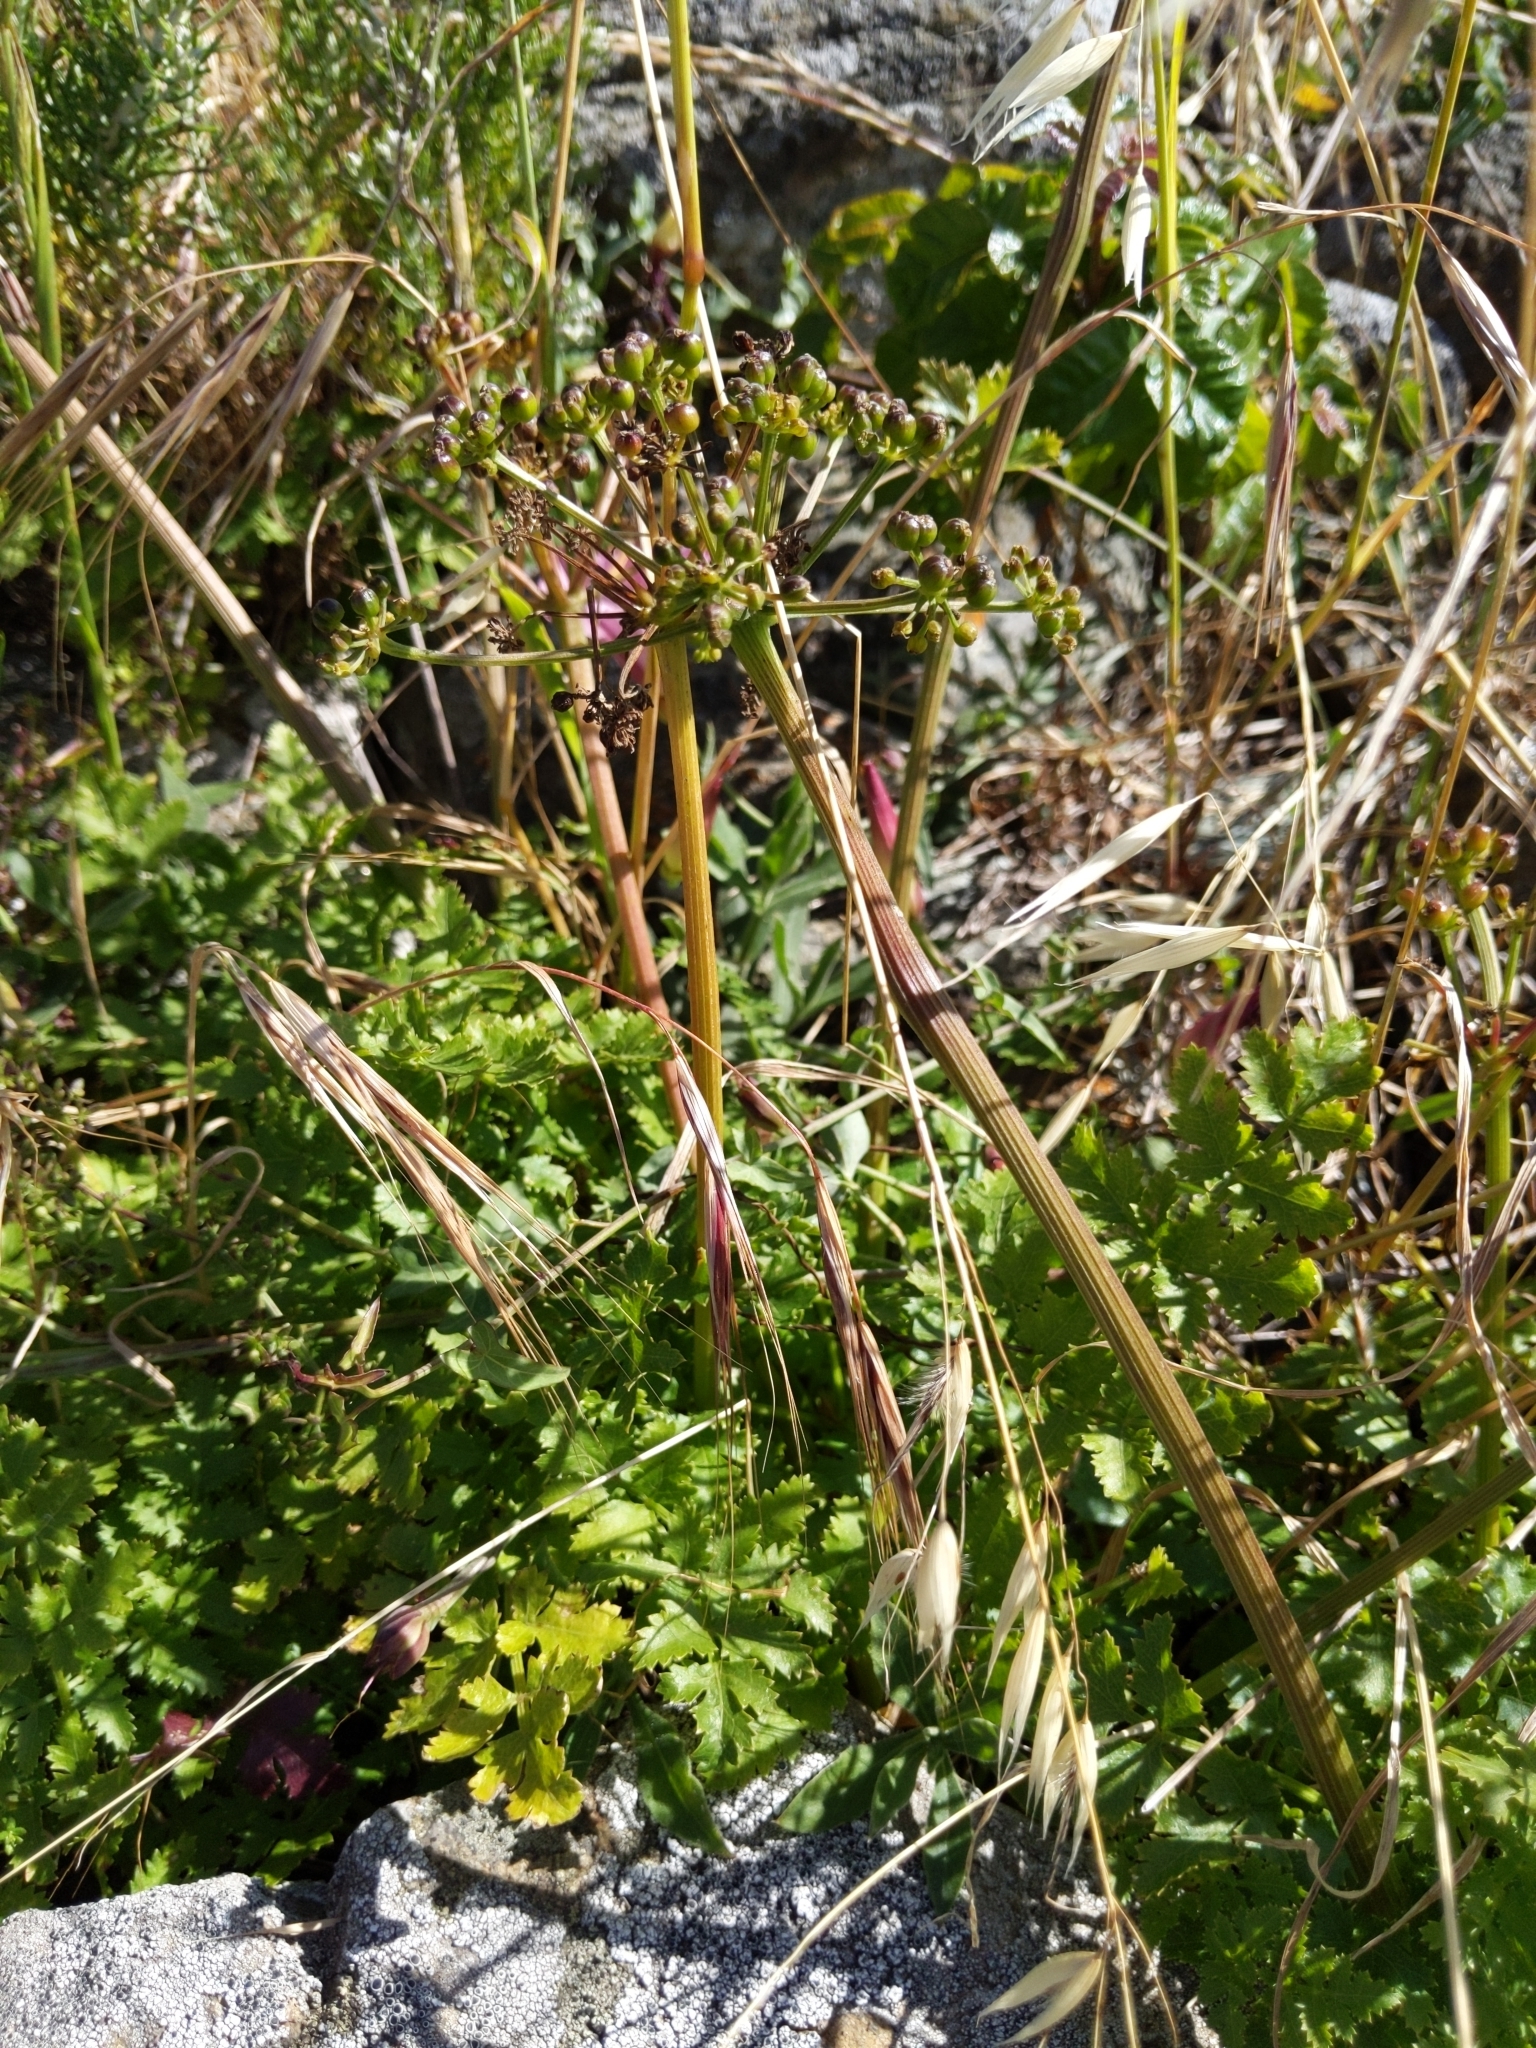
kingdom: Plantae
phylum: Tracheophyta
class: Magnoliopsida
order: Apiales
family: Apiaceae
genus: Tauschia
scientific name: Tauschia kelloggii
